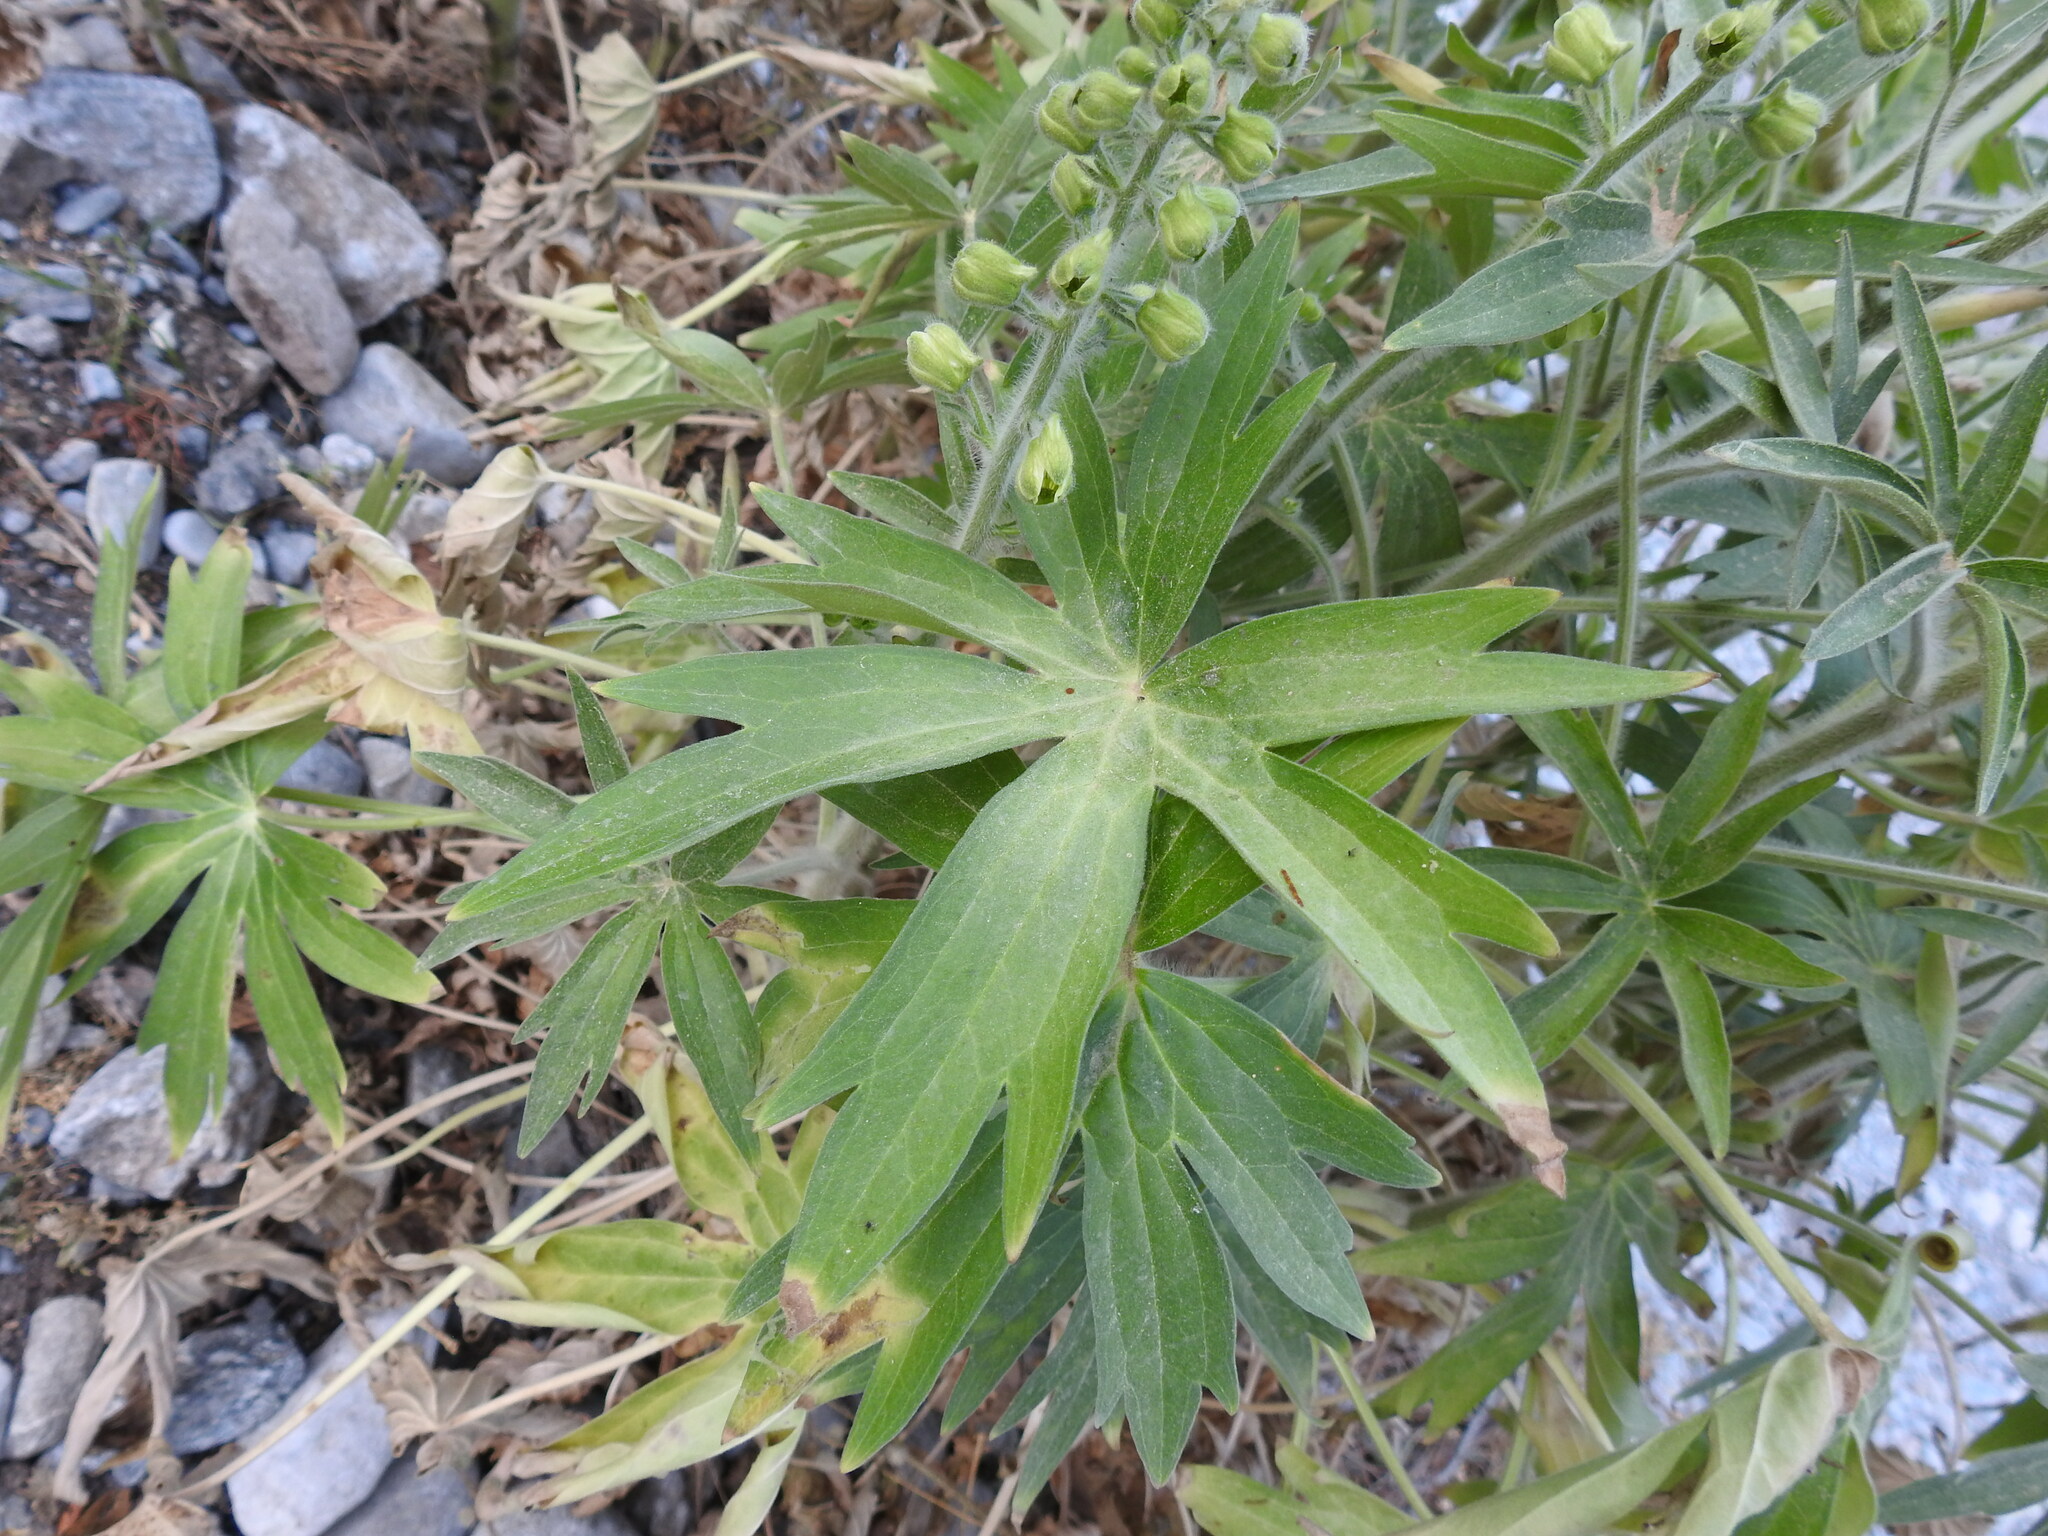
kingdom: Plantae
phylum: Tracheophyta
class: Magnoliopsida
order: Ranunculales
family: Ranunculaceae
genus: Staphisagria
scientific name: Staphisagria macrosperma
